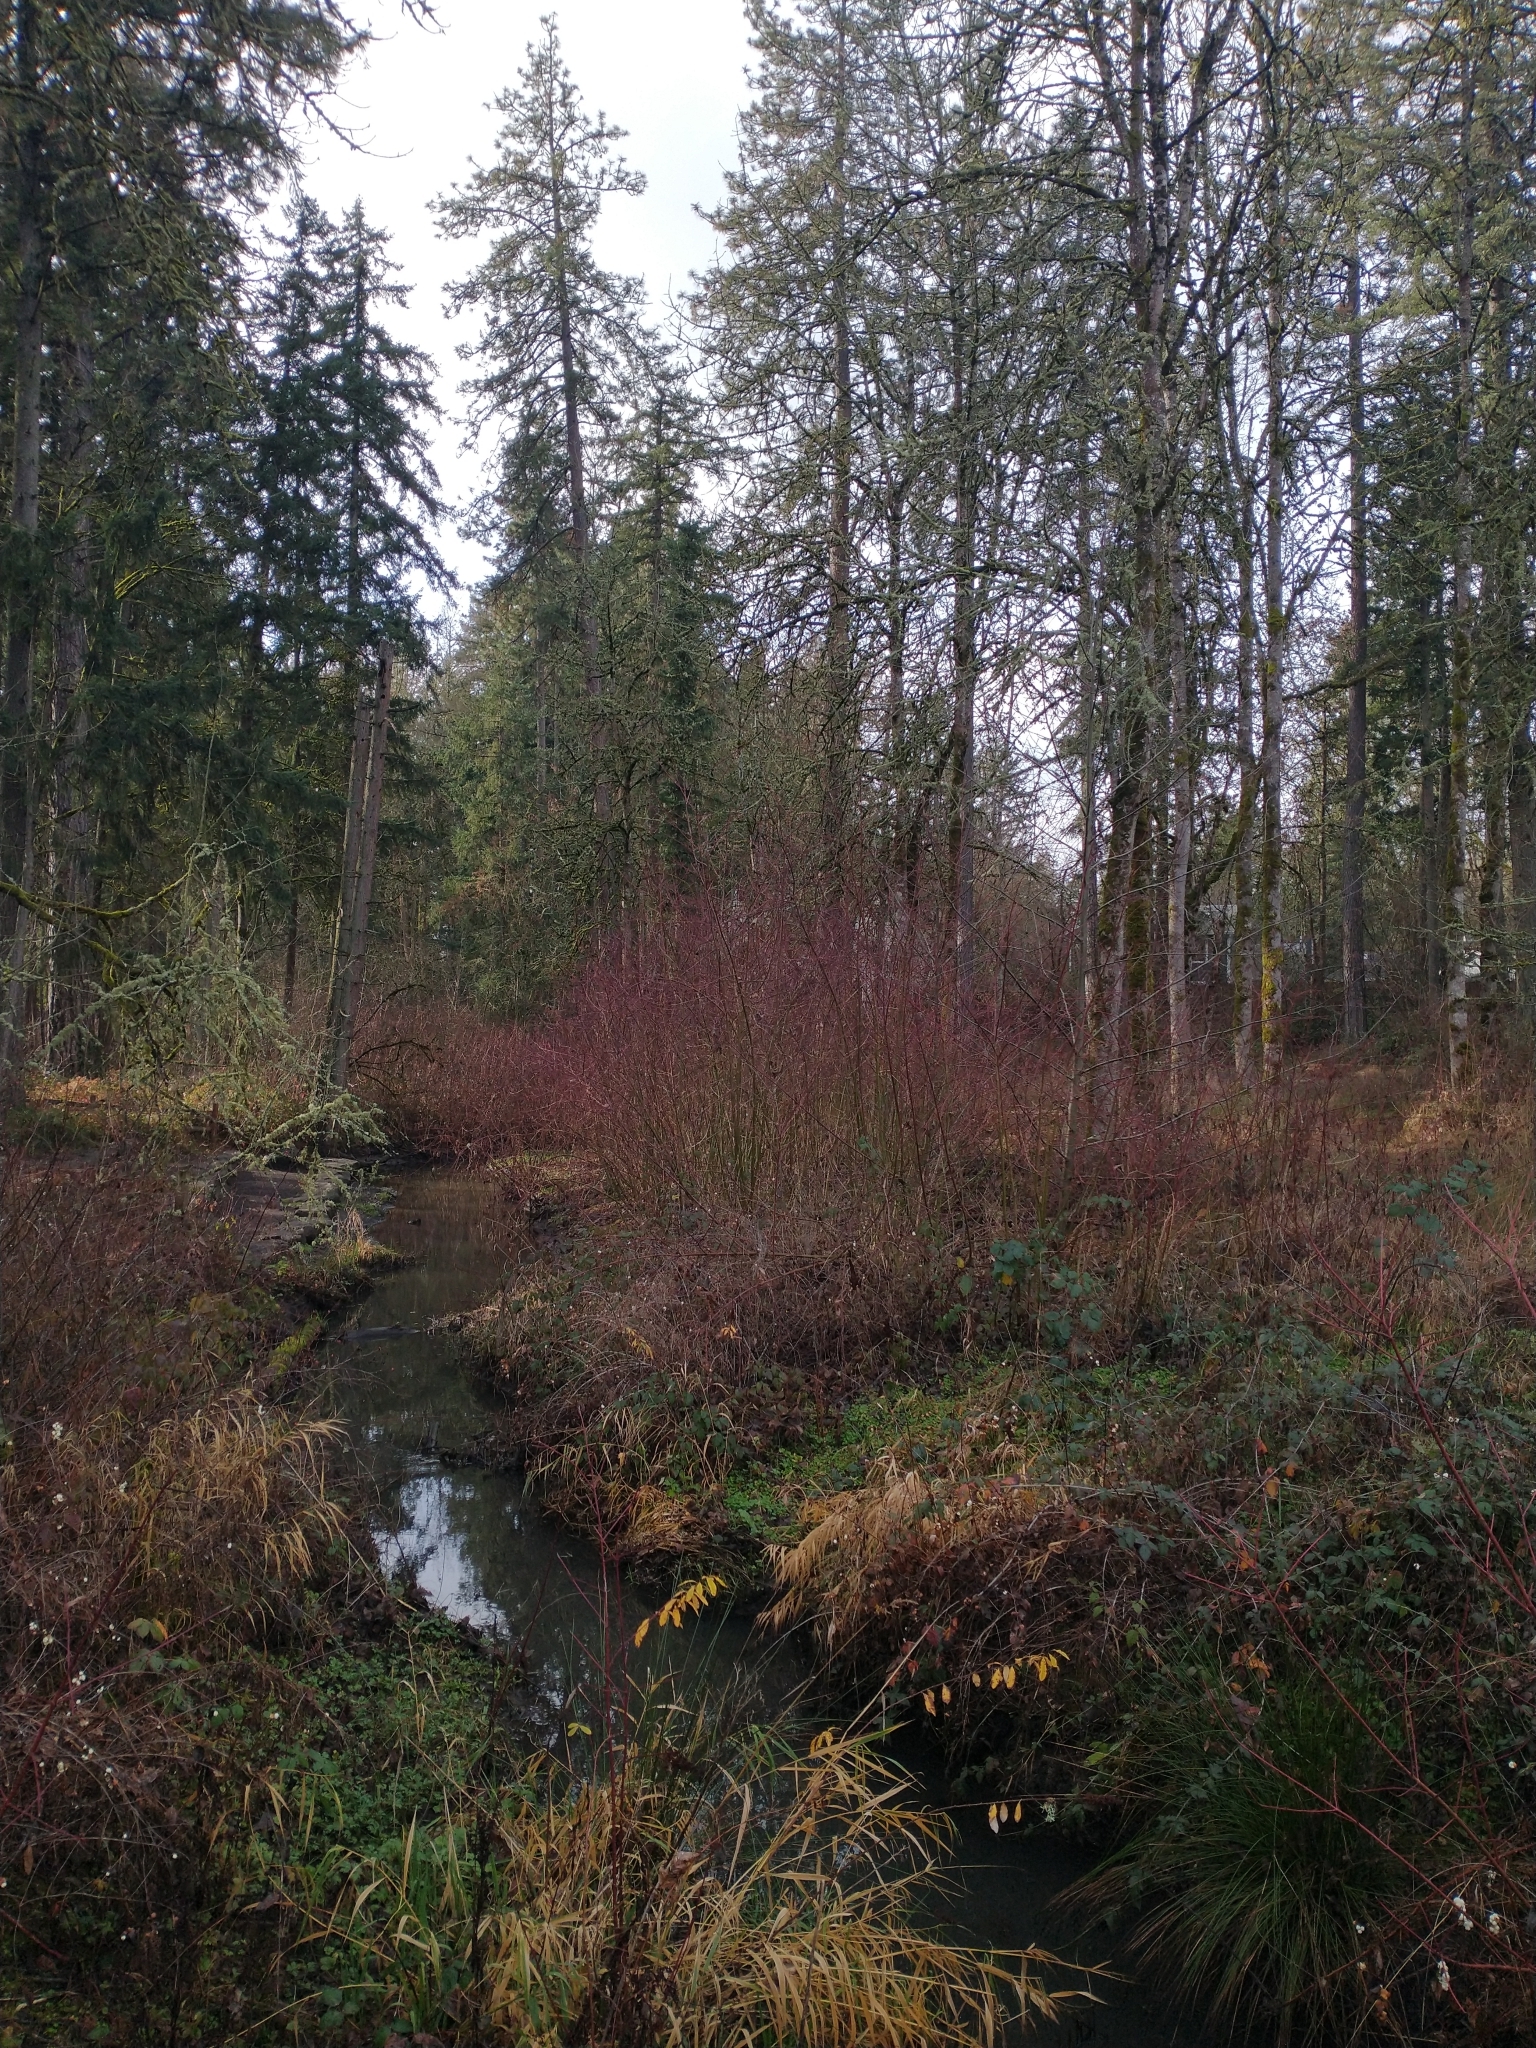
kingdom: Plantae
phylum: Tracheophyta
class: Magnoliopsida
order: Cornales
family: Cornaceae
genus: Cornus
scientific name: Cornus sericea
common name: Red-osier dogwood
